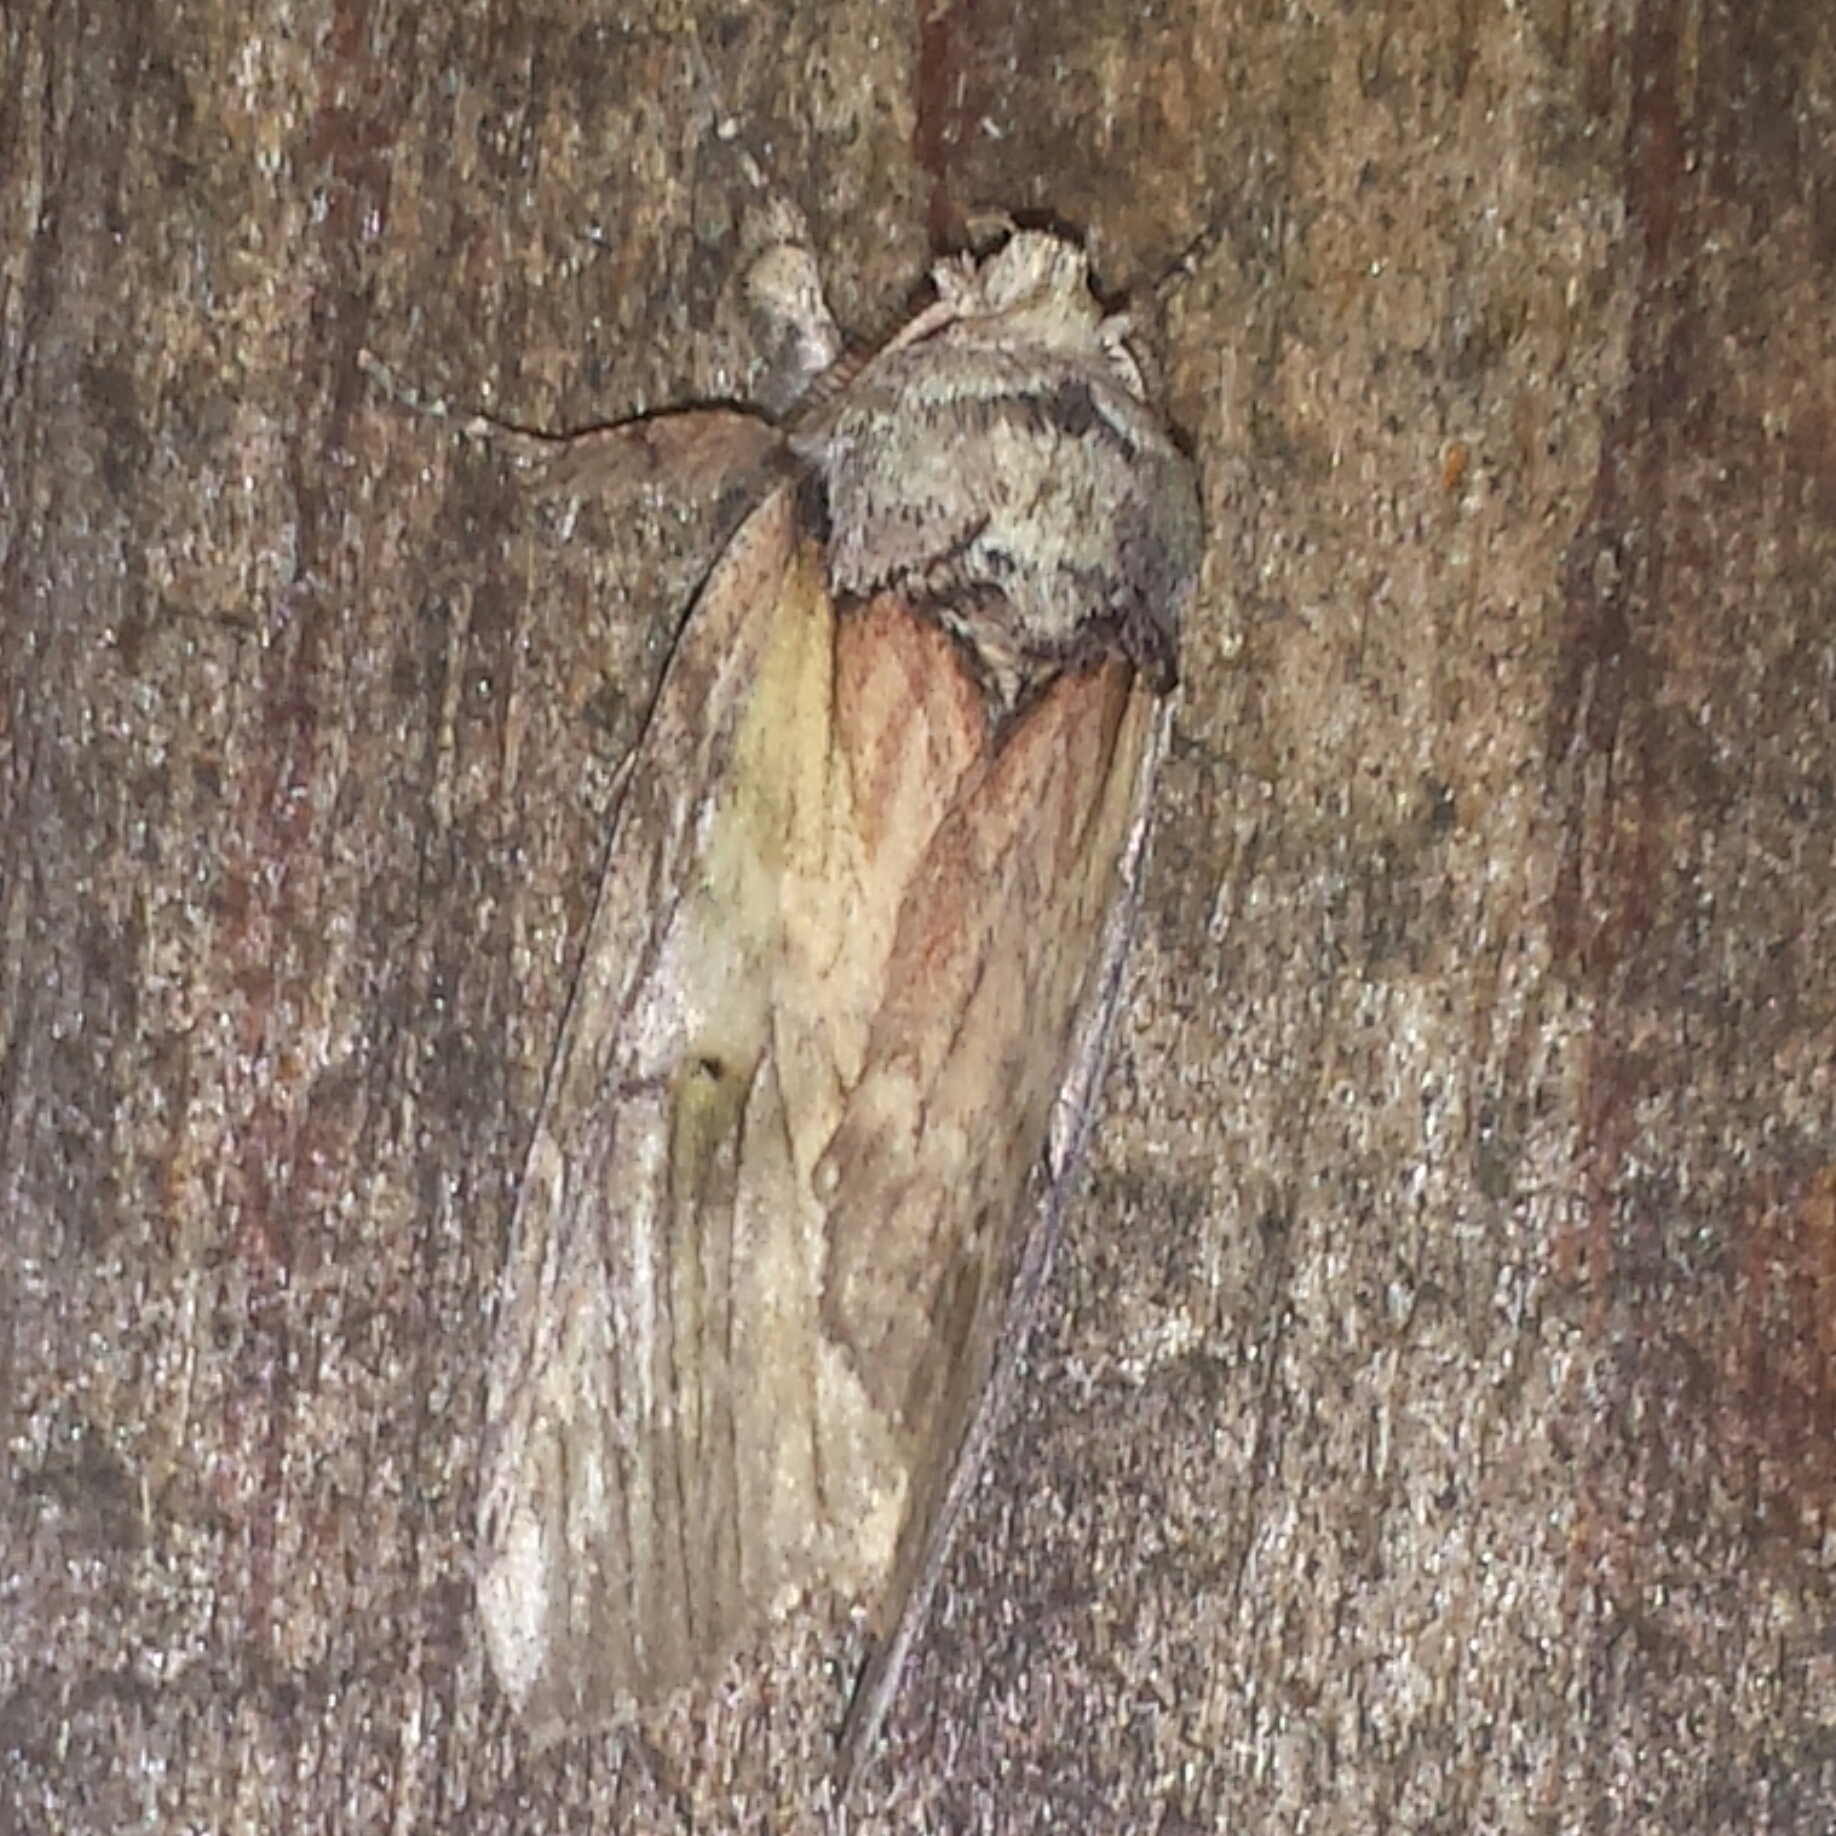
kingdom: Animalia
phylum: Arthropoda
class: Insecta
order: Lepidoptera
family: Notodontidae
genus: Schizura
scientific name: Schizura
